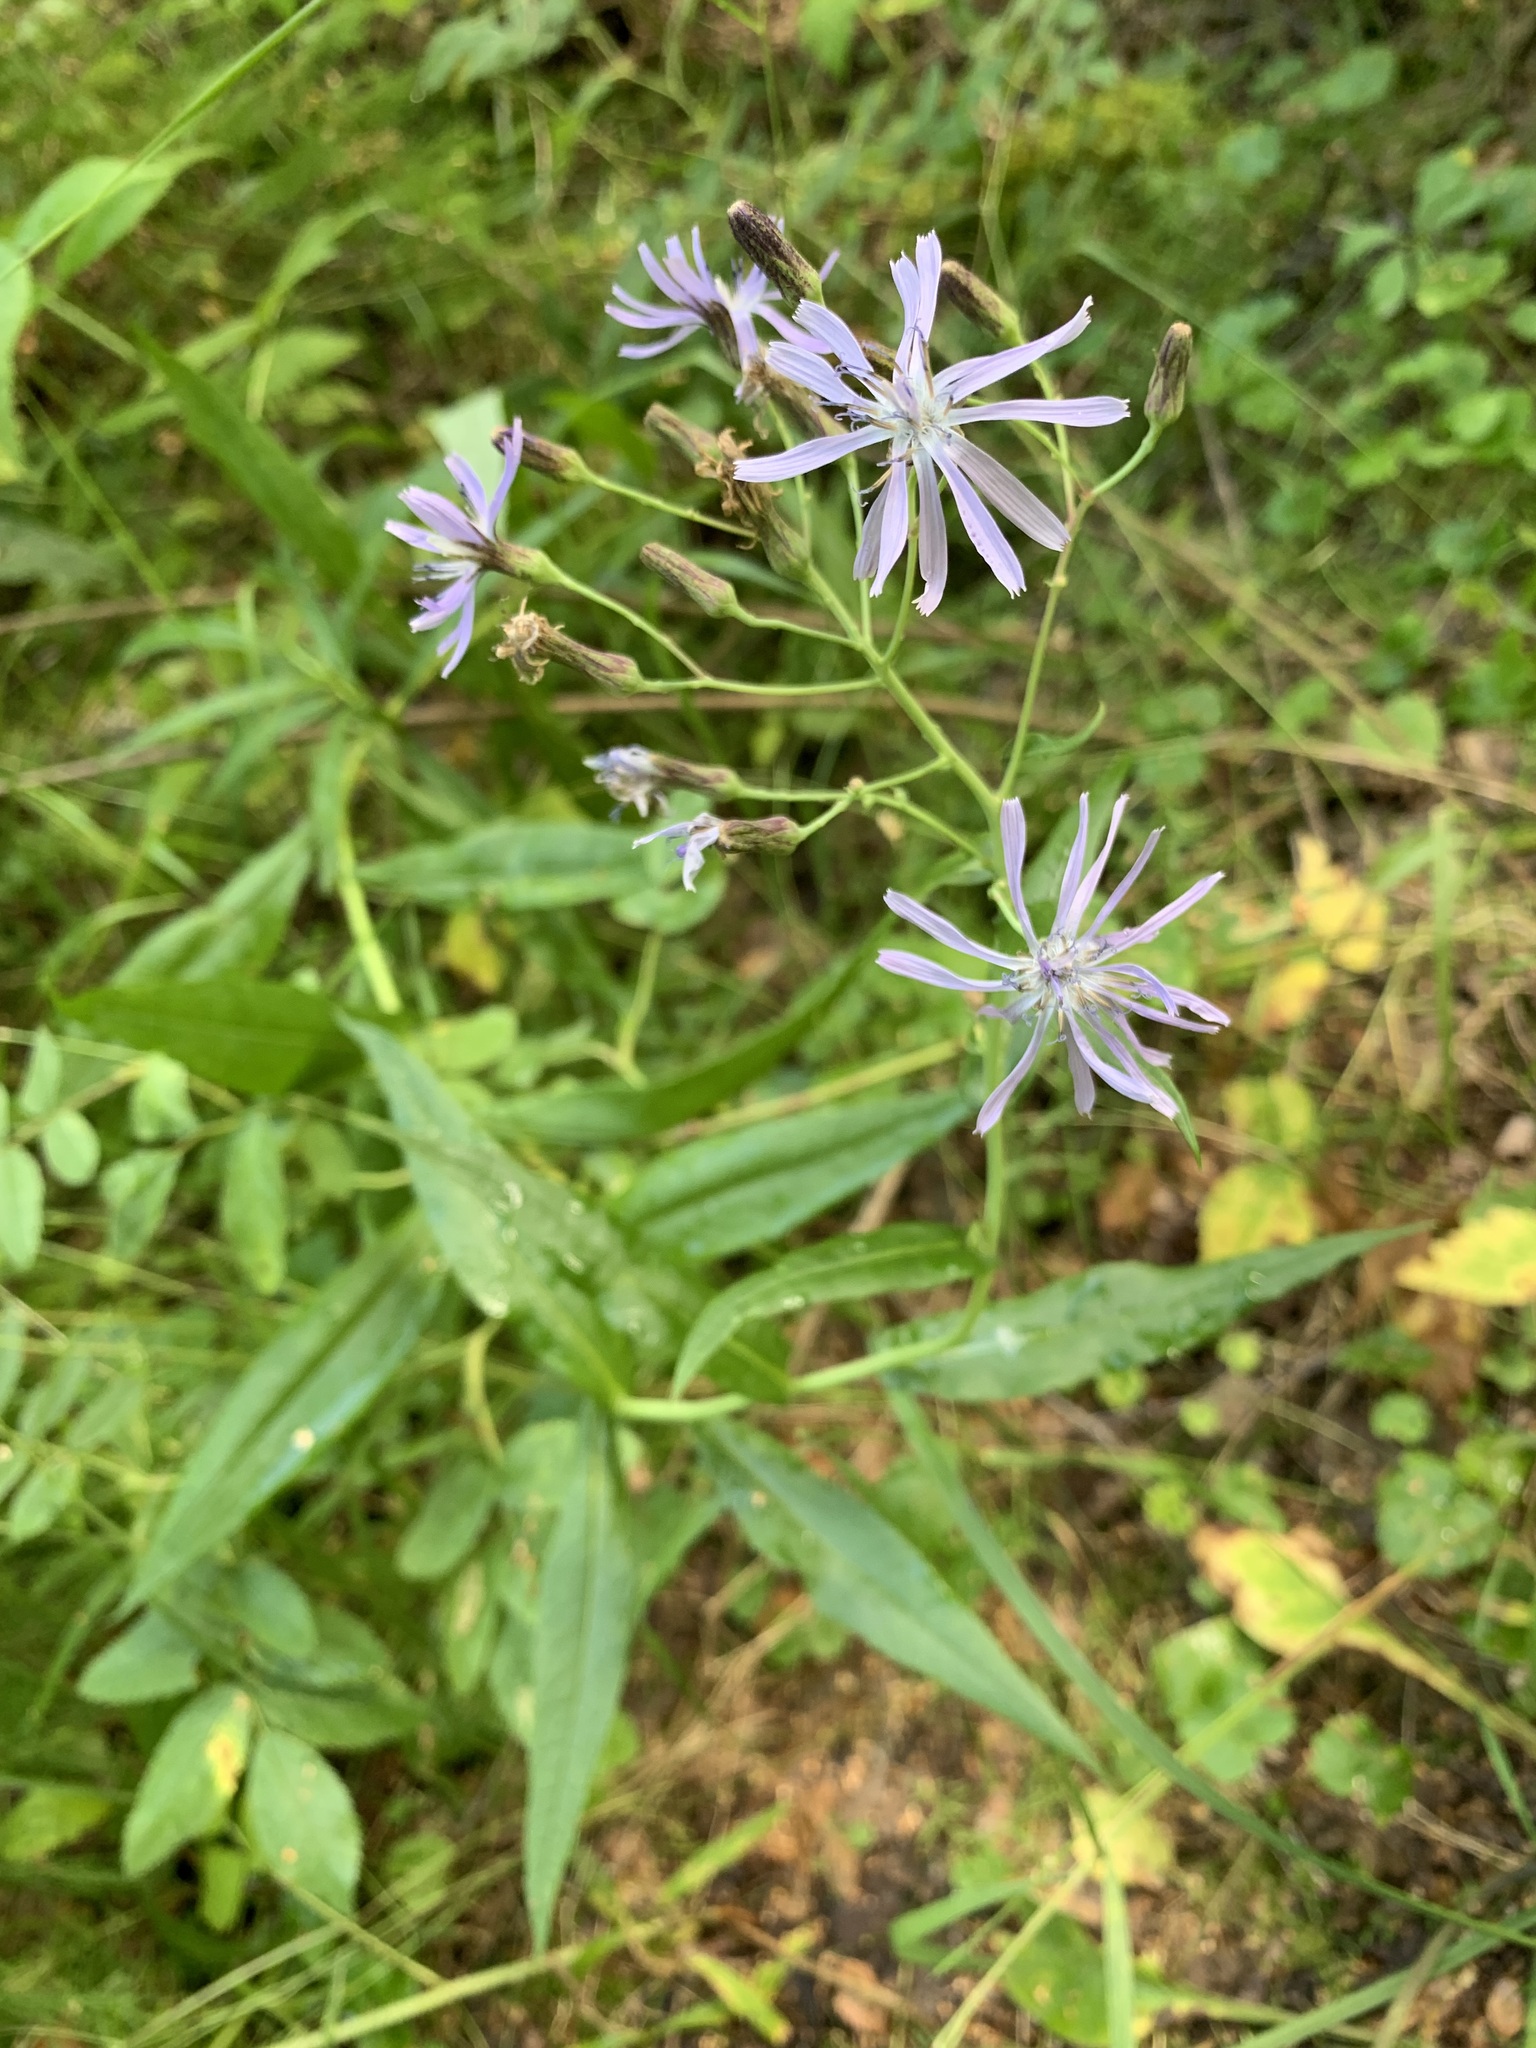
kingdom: Plantae
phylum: Tracheophyta
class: Magnoliopsida
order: Asterales
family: Asteraceae
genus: Lactuca
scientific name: Lactuca sibirica
